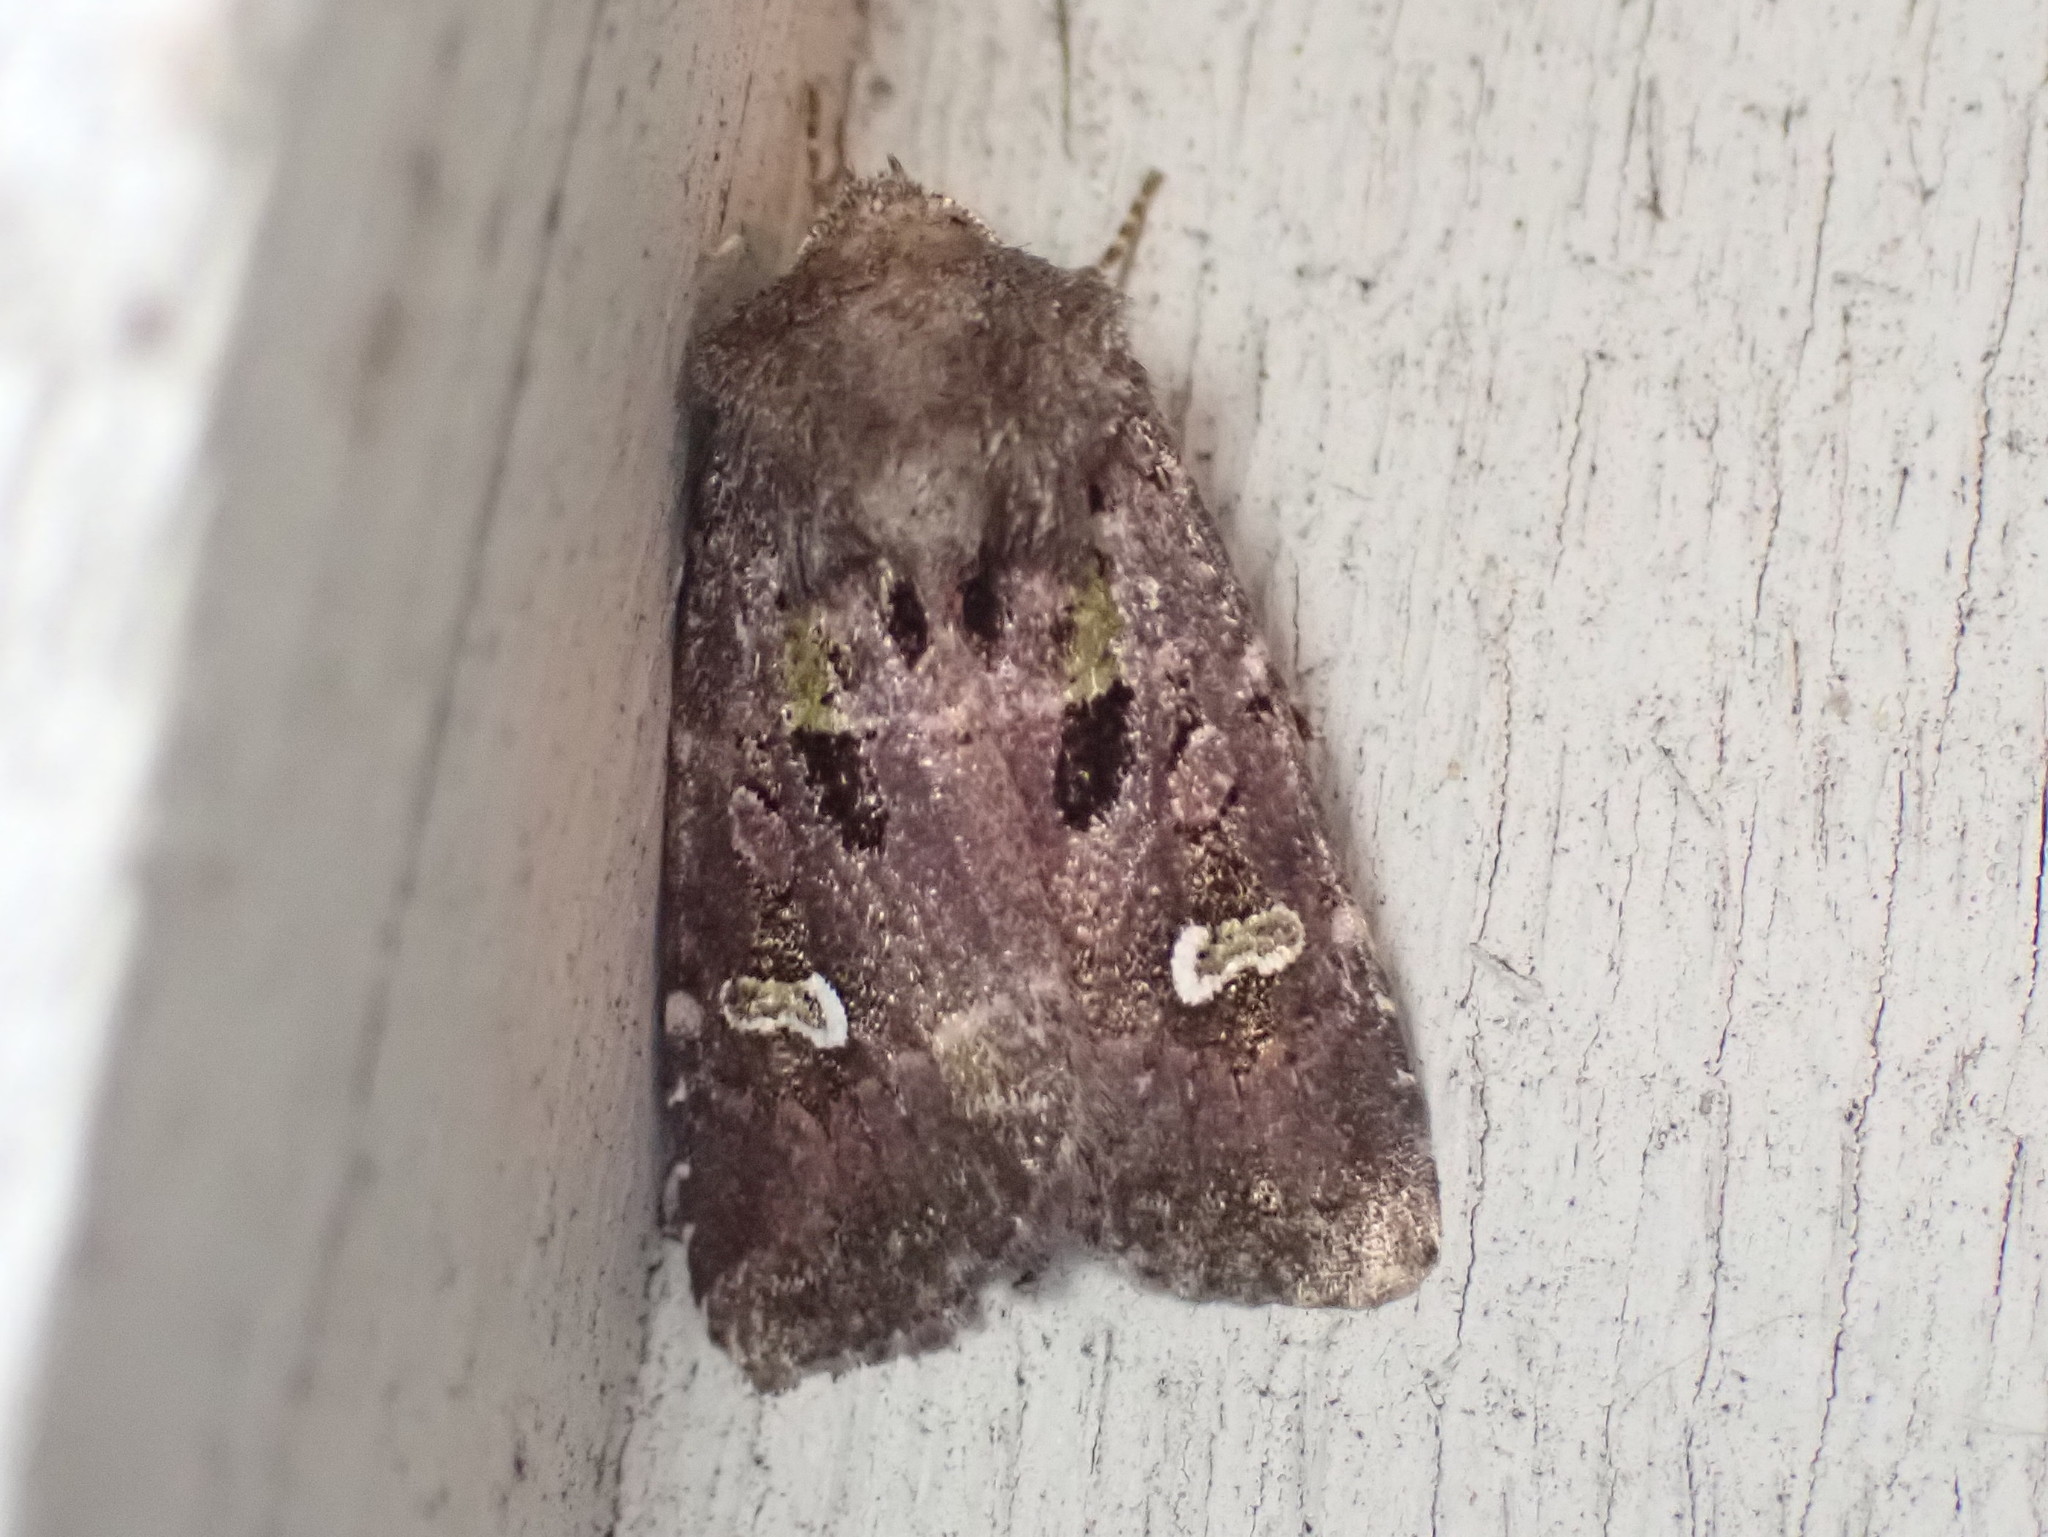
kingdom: Animalia
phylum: Arthropoda
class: Insecta
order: Lepidoptera
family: Noctuidae
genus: Lacinipolia
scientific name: Lacinipolia renigera
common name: Kidney-spotted minor
